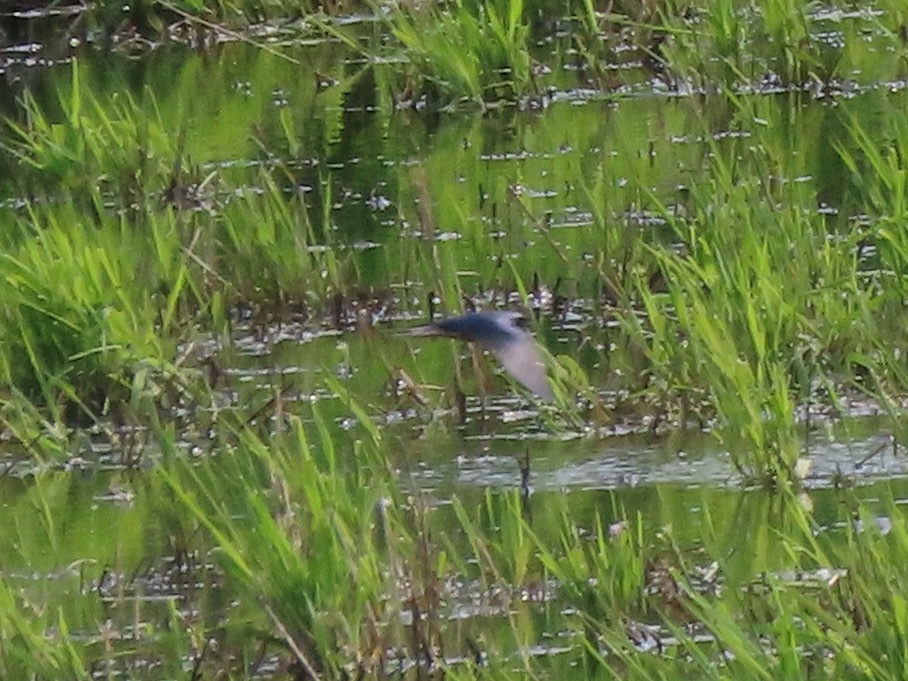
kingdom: Animalia
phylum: Chordata
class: Aves
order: Passeriformes
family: Hirundinidae
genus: Hirundo
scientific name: Hirundo rustica
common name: Barn swallow
